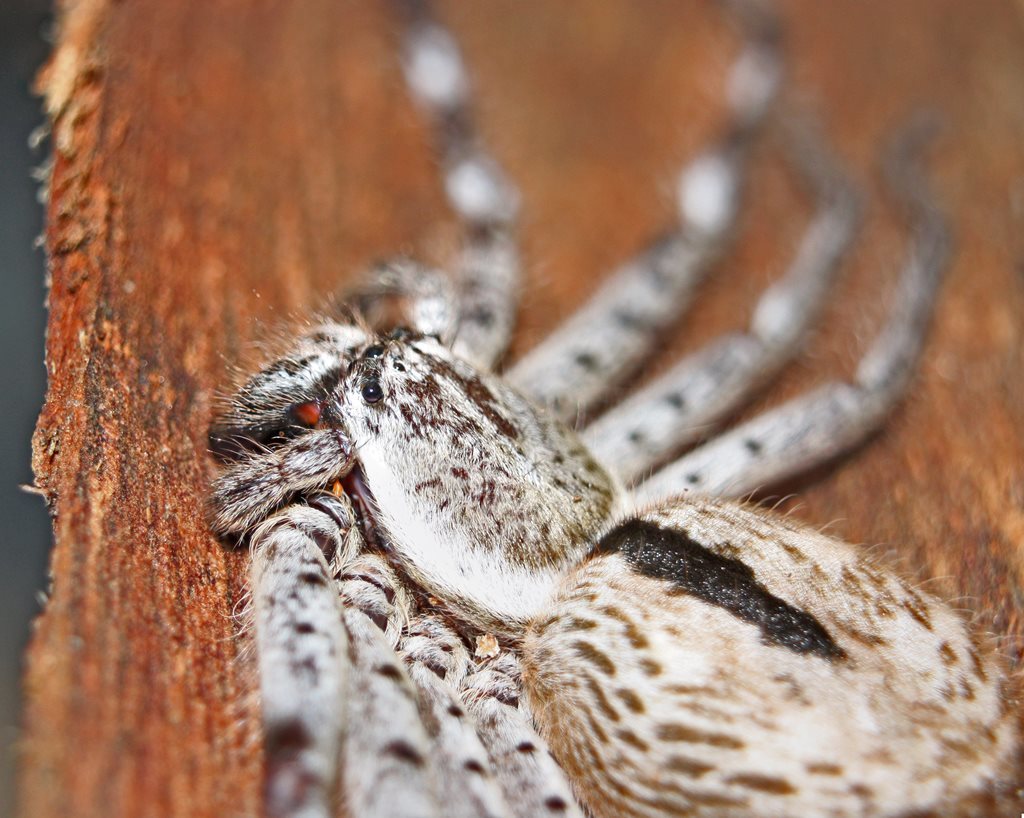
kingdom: Animalia
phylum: Arthropoda
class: Arachnida
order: Araneae
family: Sparassidae
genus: Holconia
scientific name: Holconia immanis
